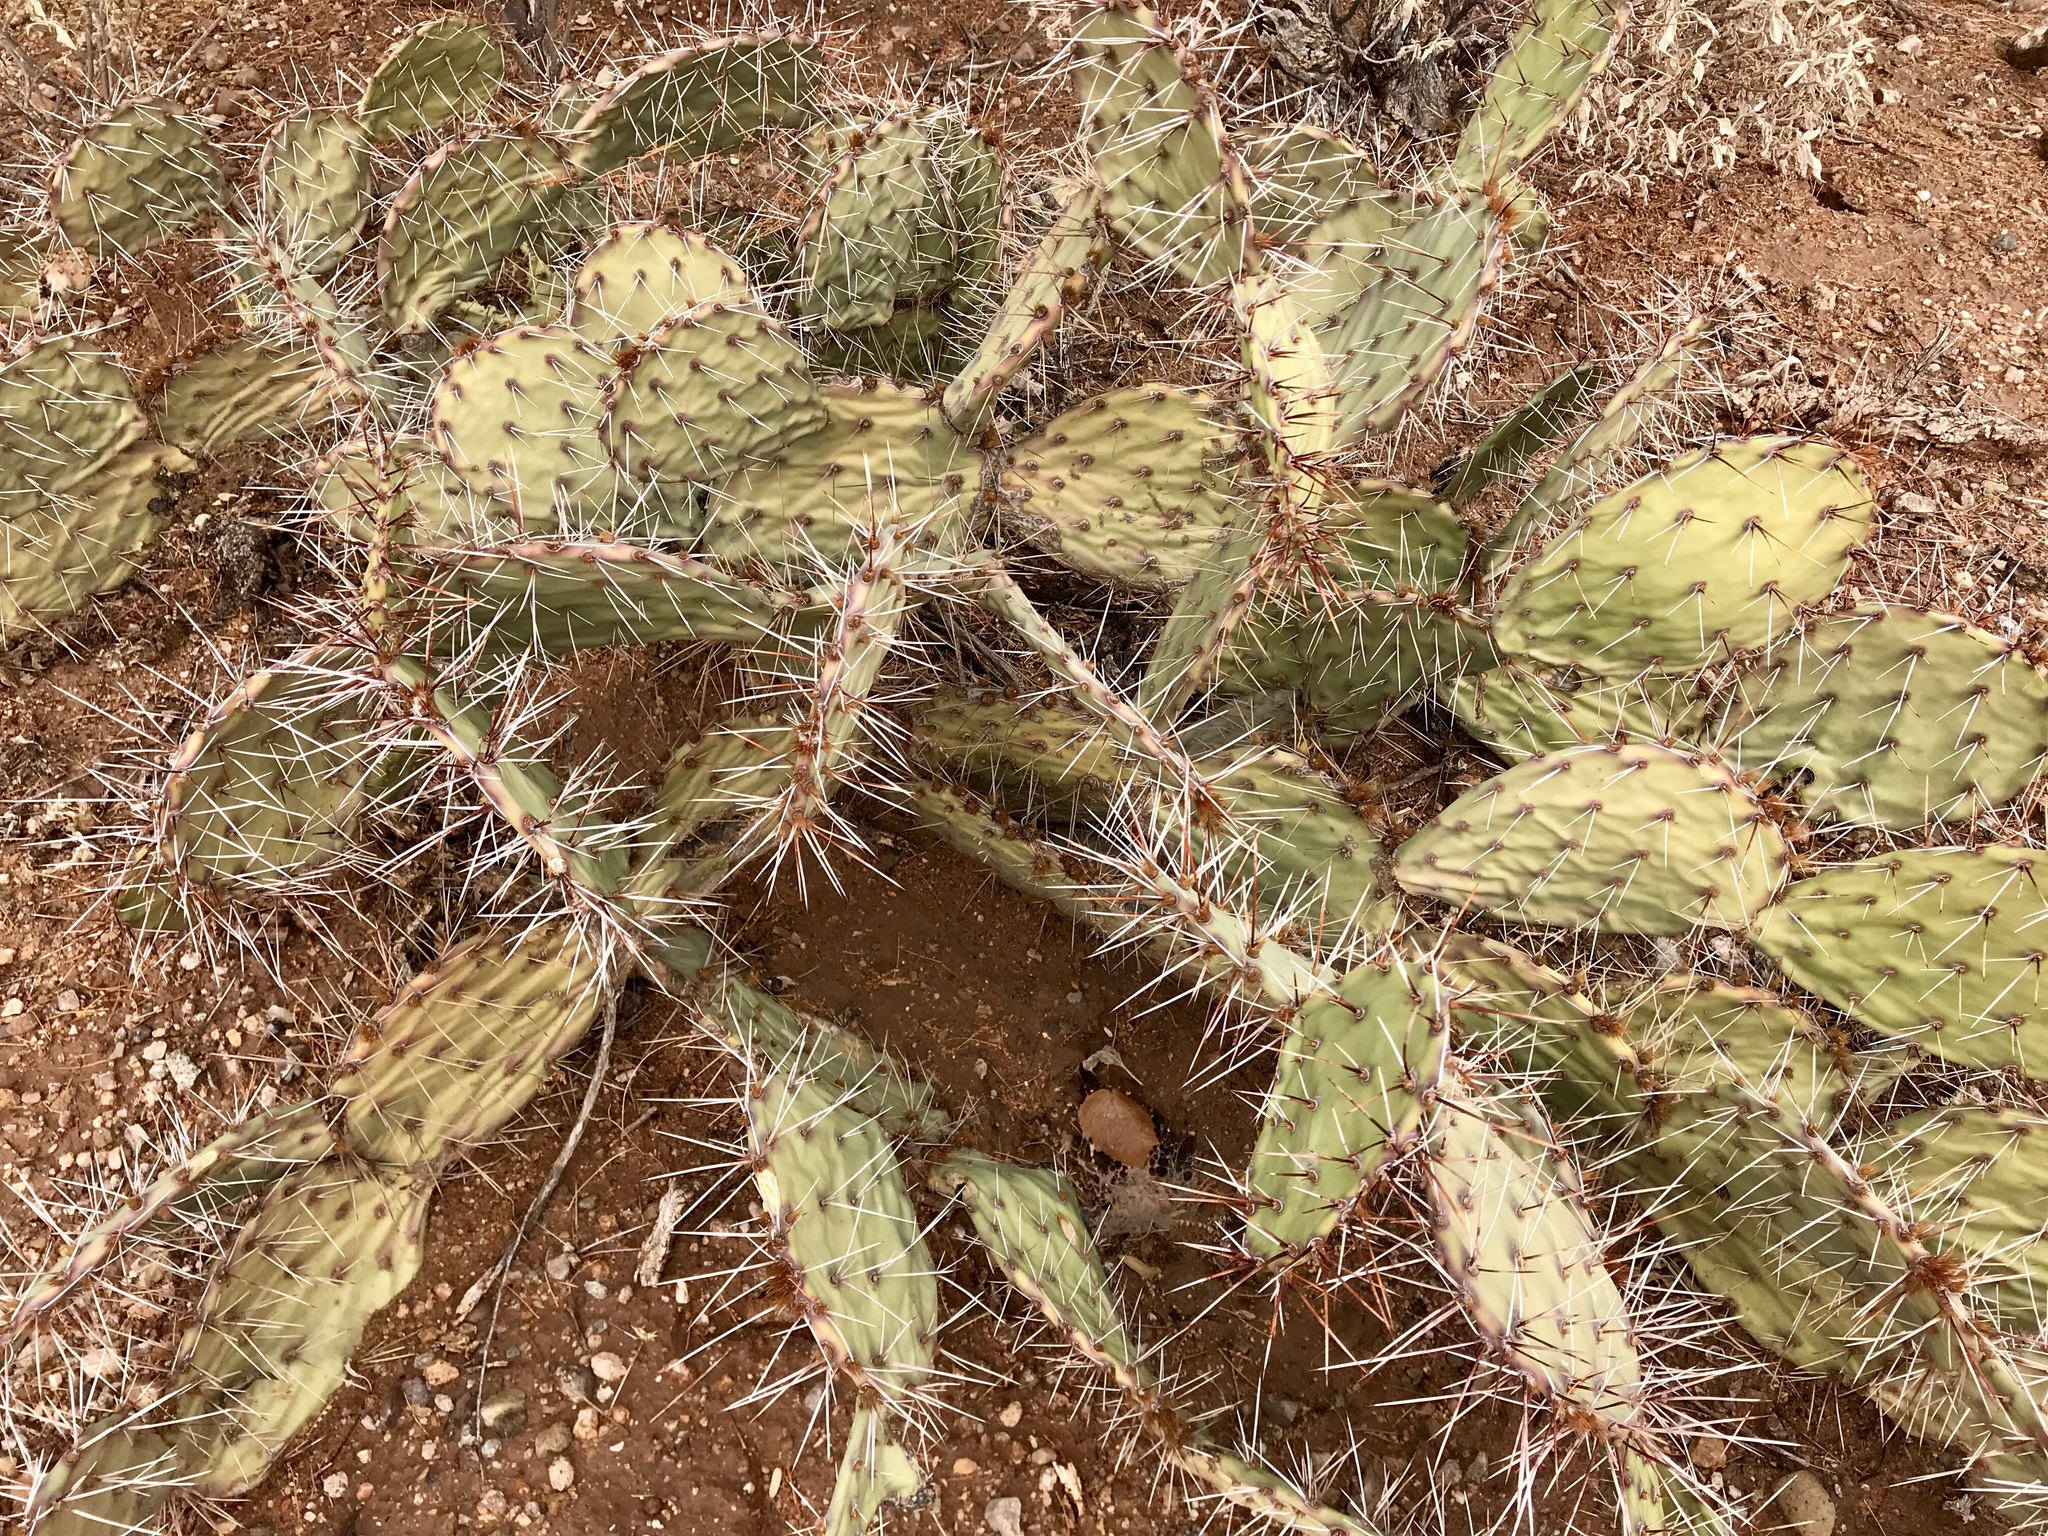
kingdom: Plantae
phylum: Tracheophyta
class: Magnoliopsida
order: Caryophyllales
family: Cactaceae
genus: Opuntia
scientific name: Opuntia phaeacantha
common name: New mexico prickly-pear
